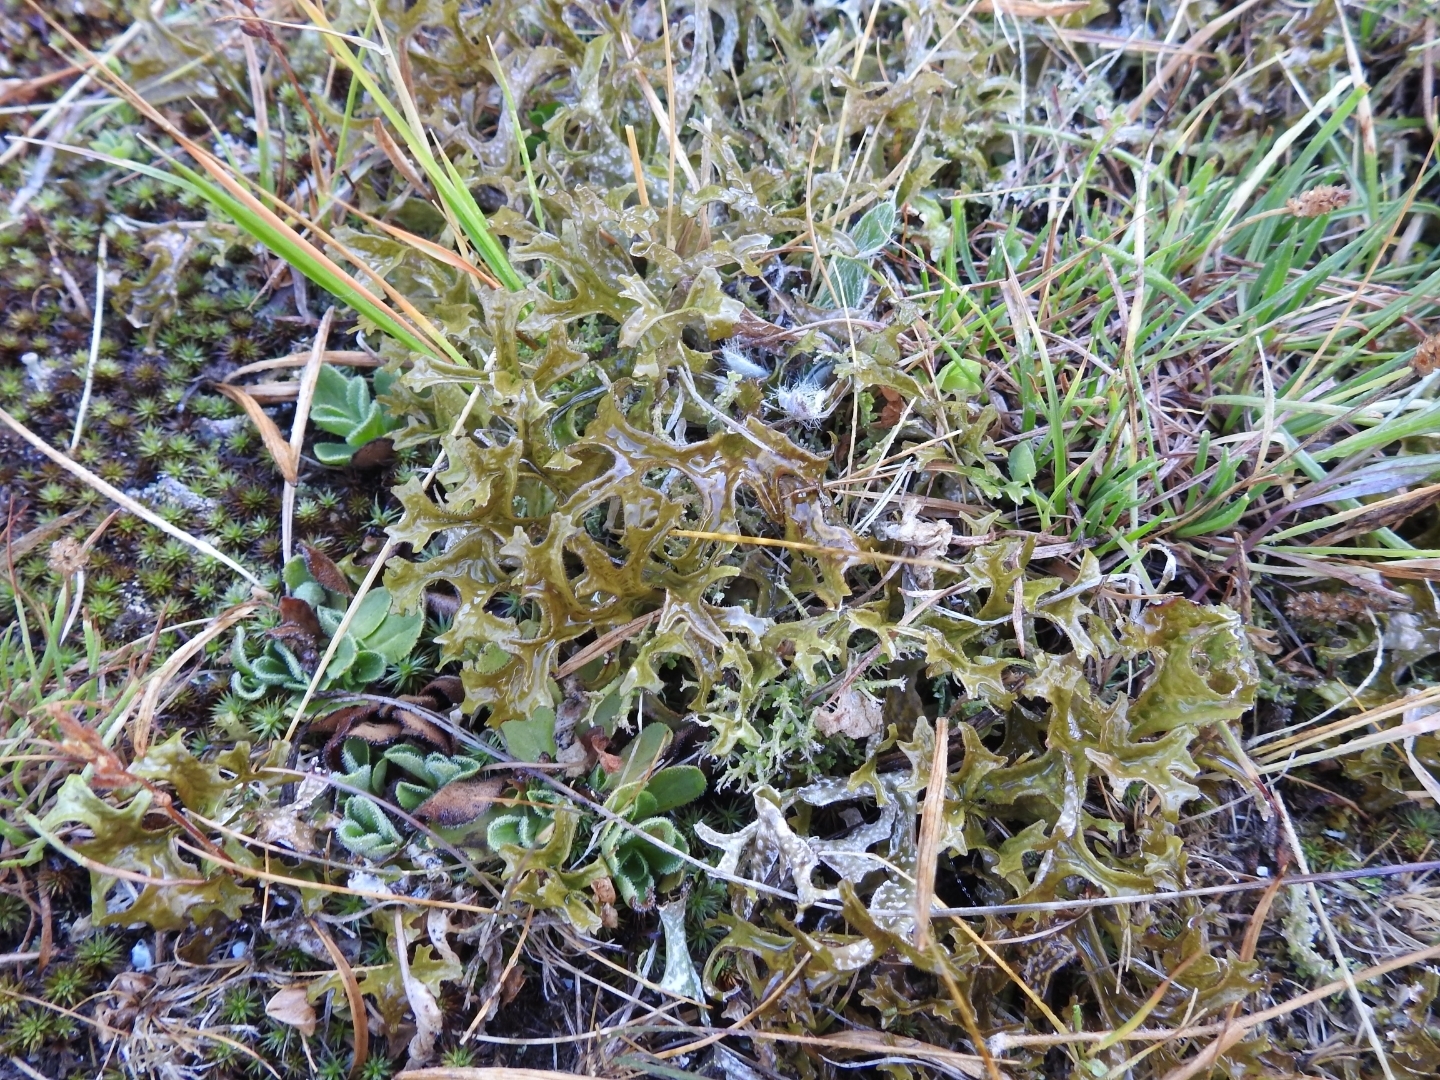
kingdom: Fungi
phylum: Ascomycota
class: Lecanoromycetes
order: Lecanorales
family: Parmeliaceae
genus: Cetraria
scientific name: Cetraria islandica
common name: Iceland lichen
